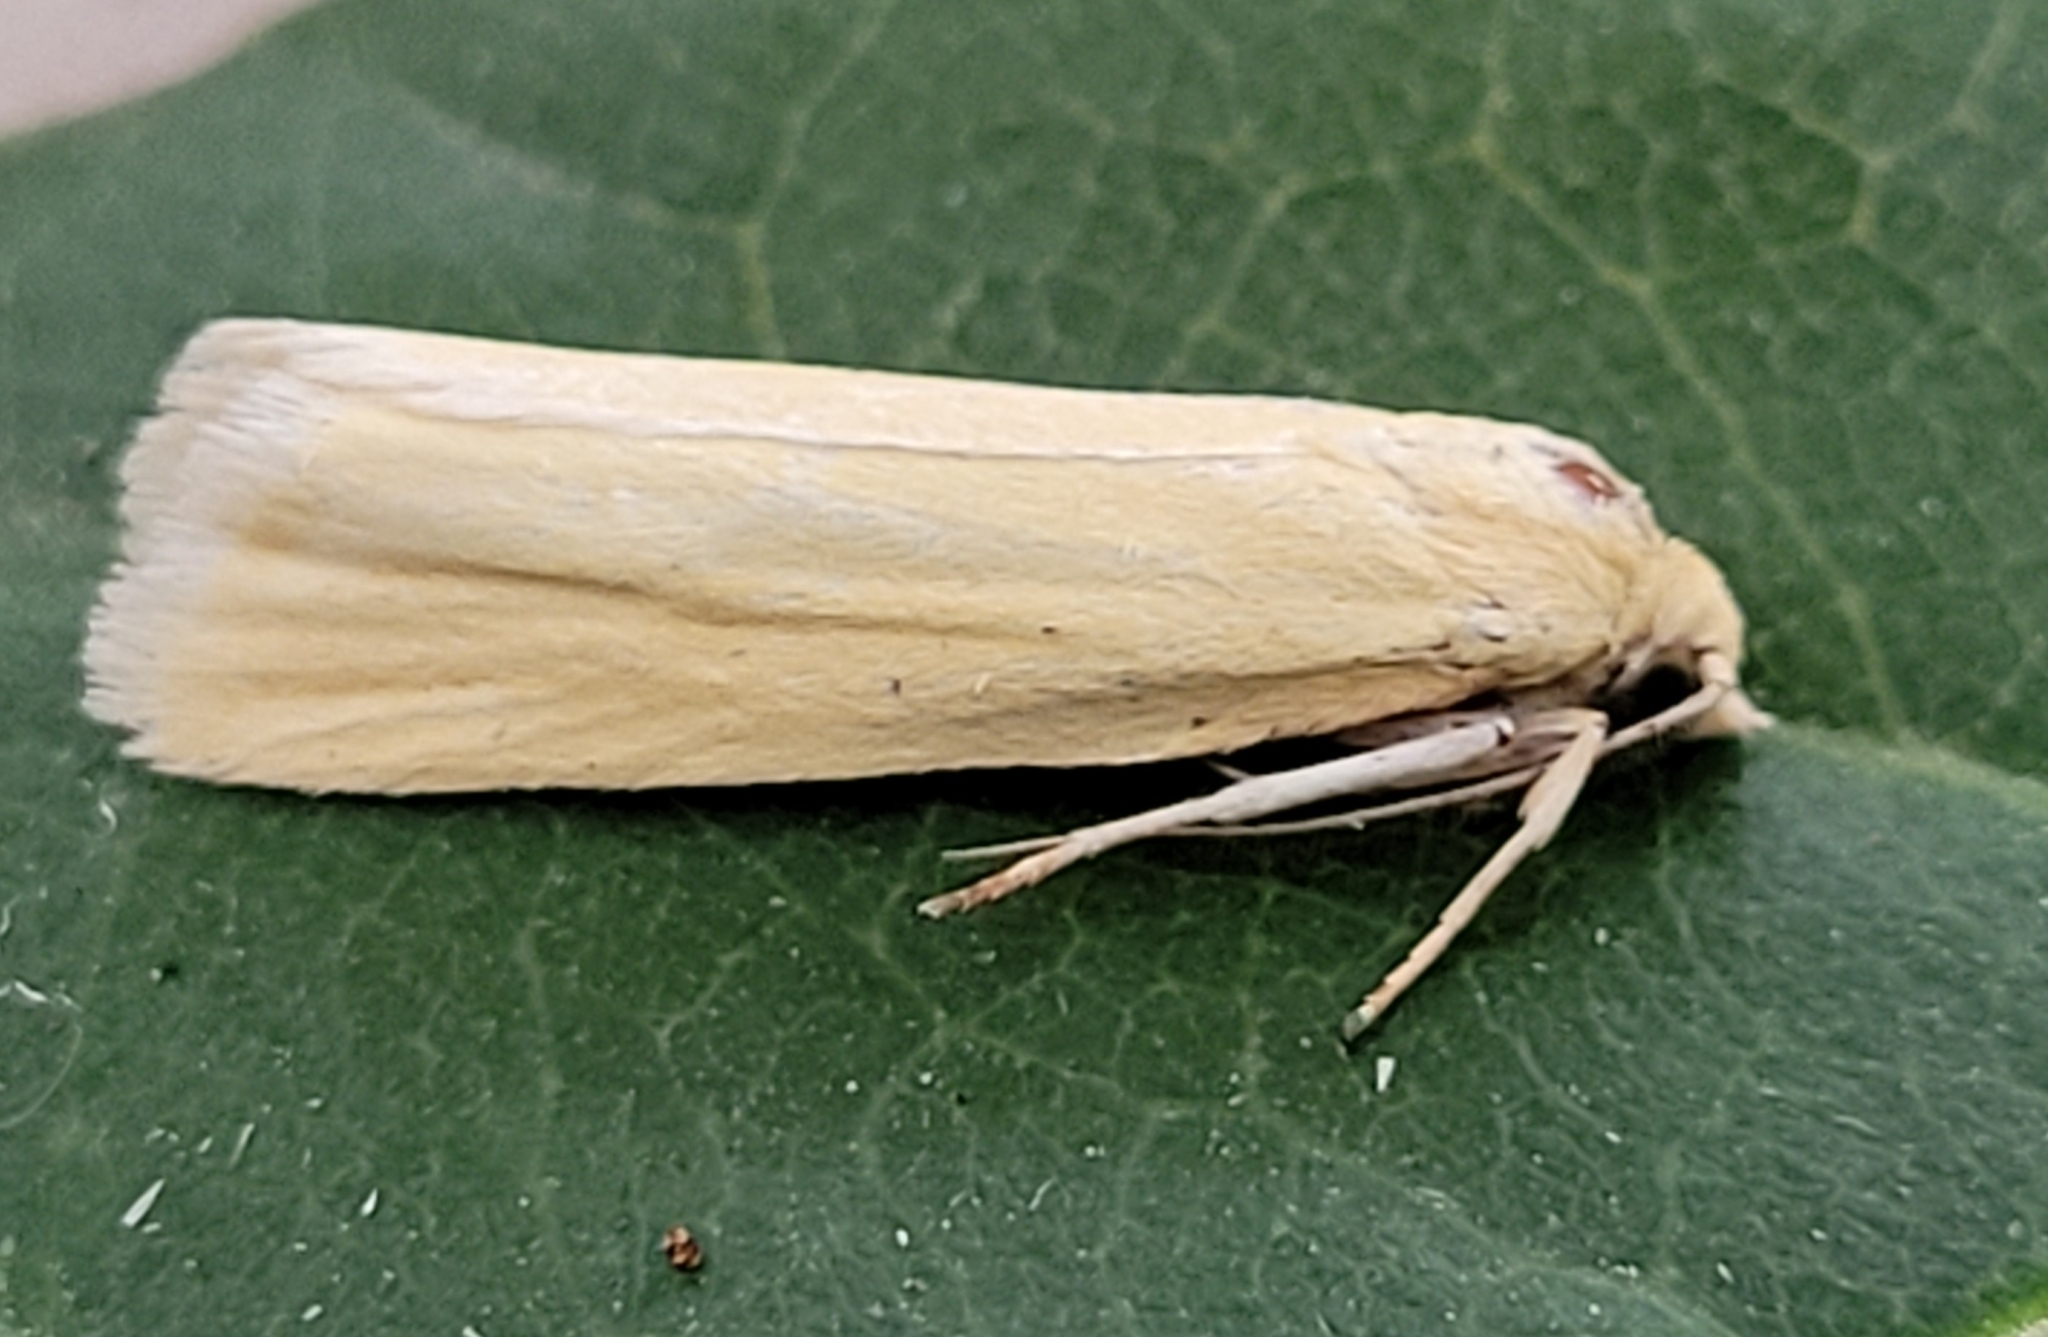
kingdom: Animalia
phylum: Arthropoda
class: Insecta
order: Lepidoptera
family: Tortricidae
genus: Pelochrista
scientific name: Pelochrista fandana
